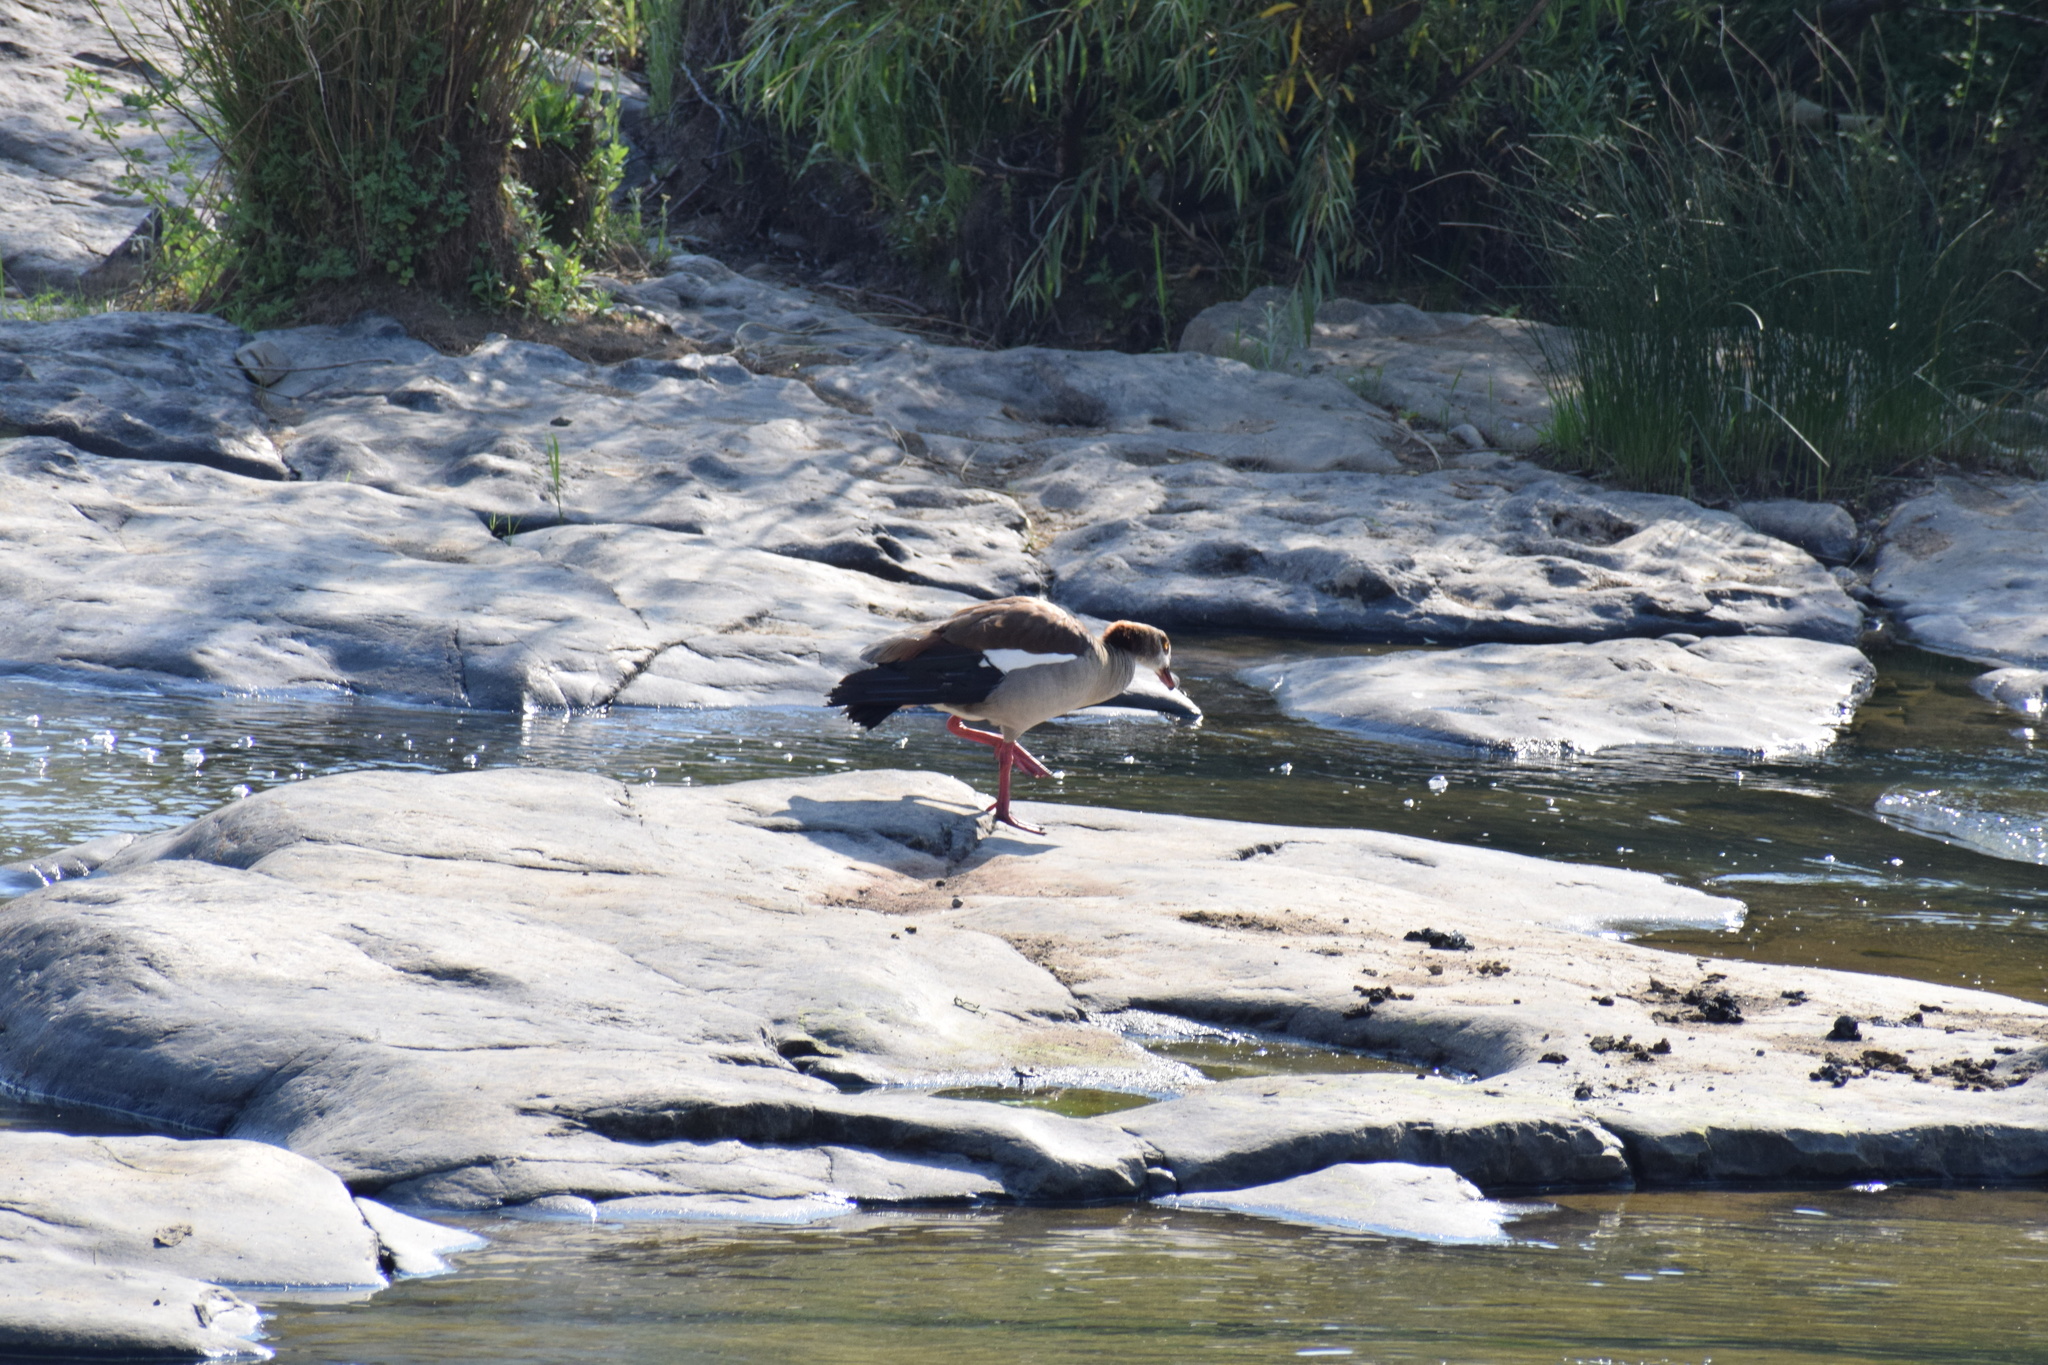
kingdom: Animalia
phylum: Chordata
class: Aves
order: Anseriformes
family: Anatidae
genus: Alopochen
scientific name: Alopochen aegyptiaca
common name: Egyptian goose
